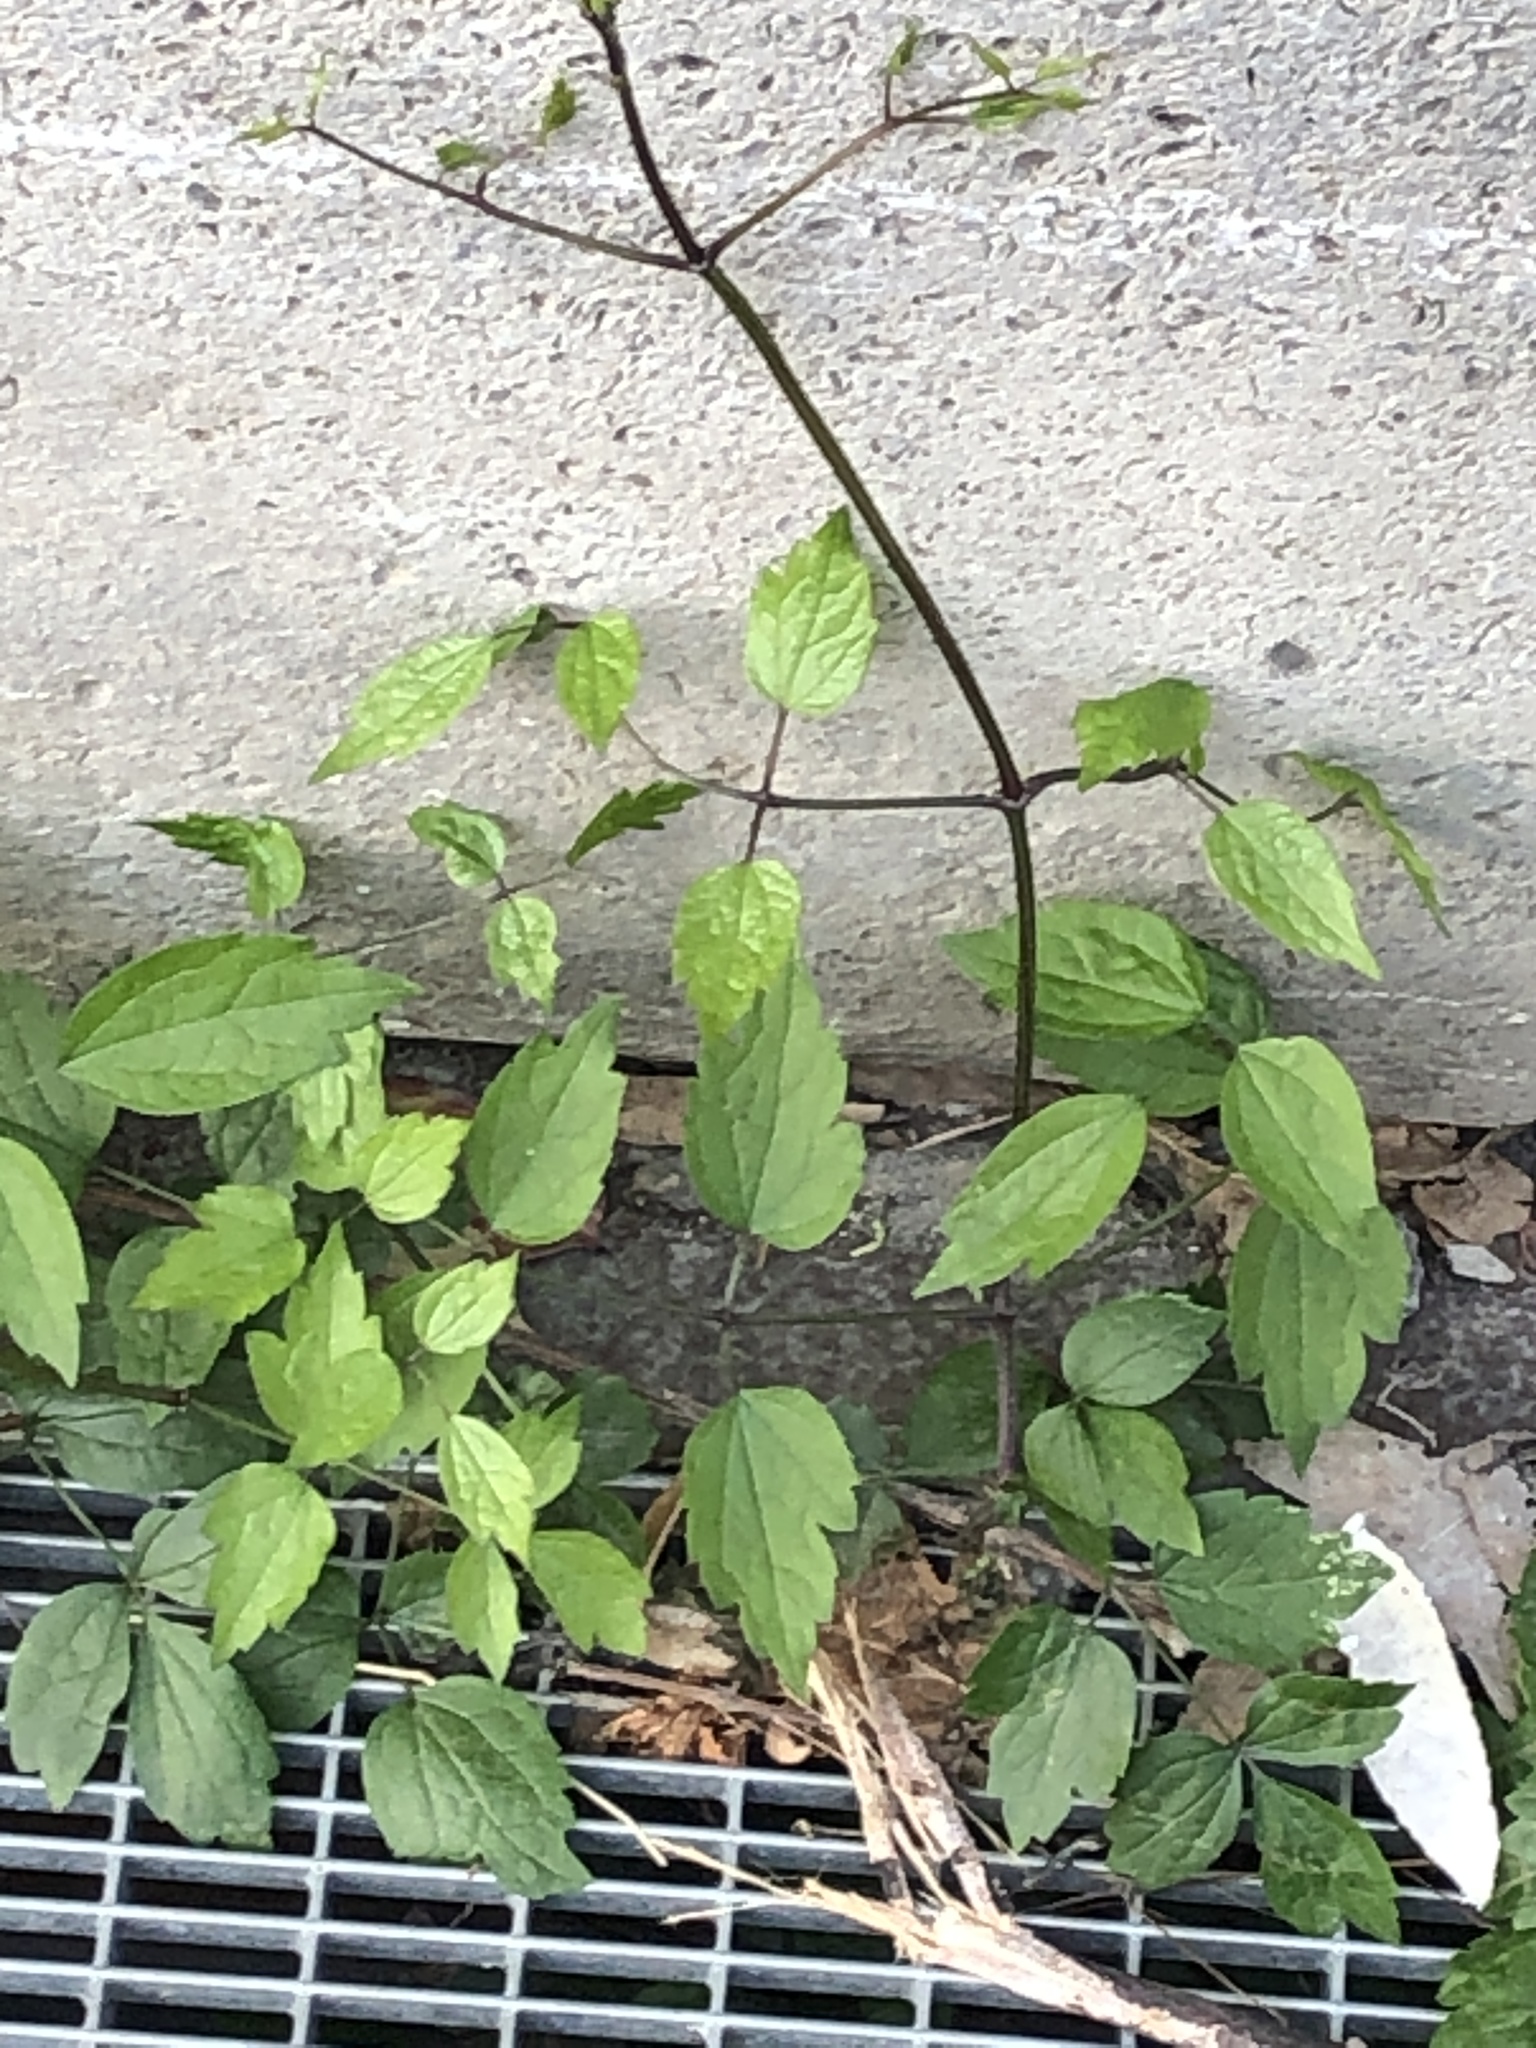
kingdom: Plantae
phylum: Tracheophyta
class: Magnoliopsida
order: Ranunculales
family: Ranunculaceae
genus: Clematis
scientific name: Clematis vitalba
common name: Evergreen clematis
